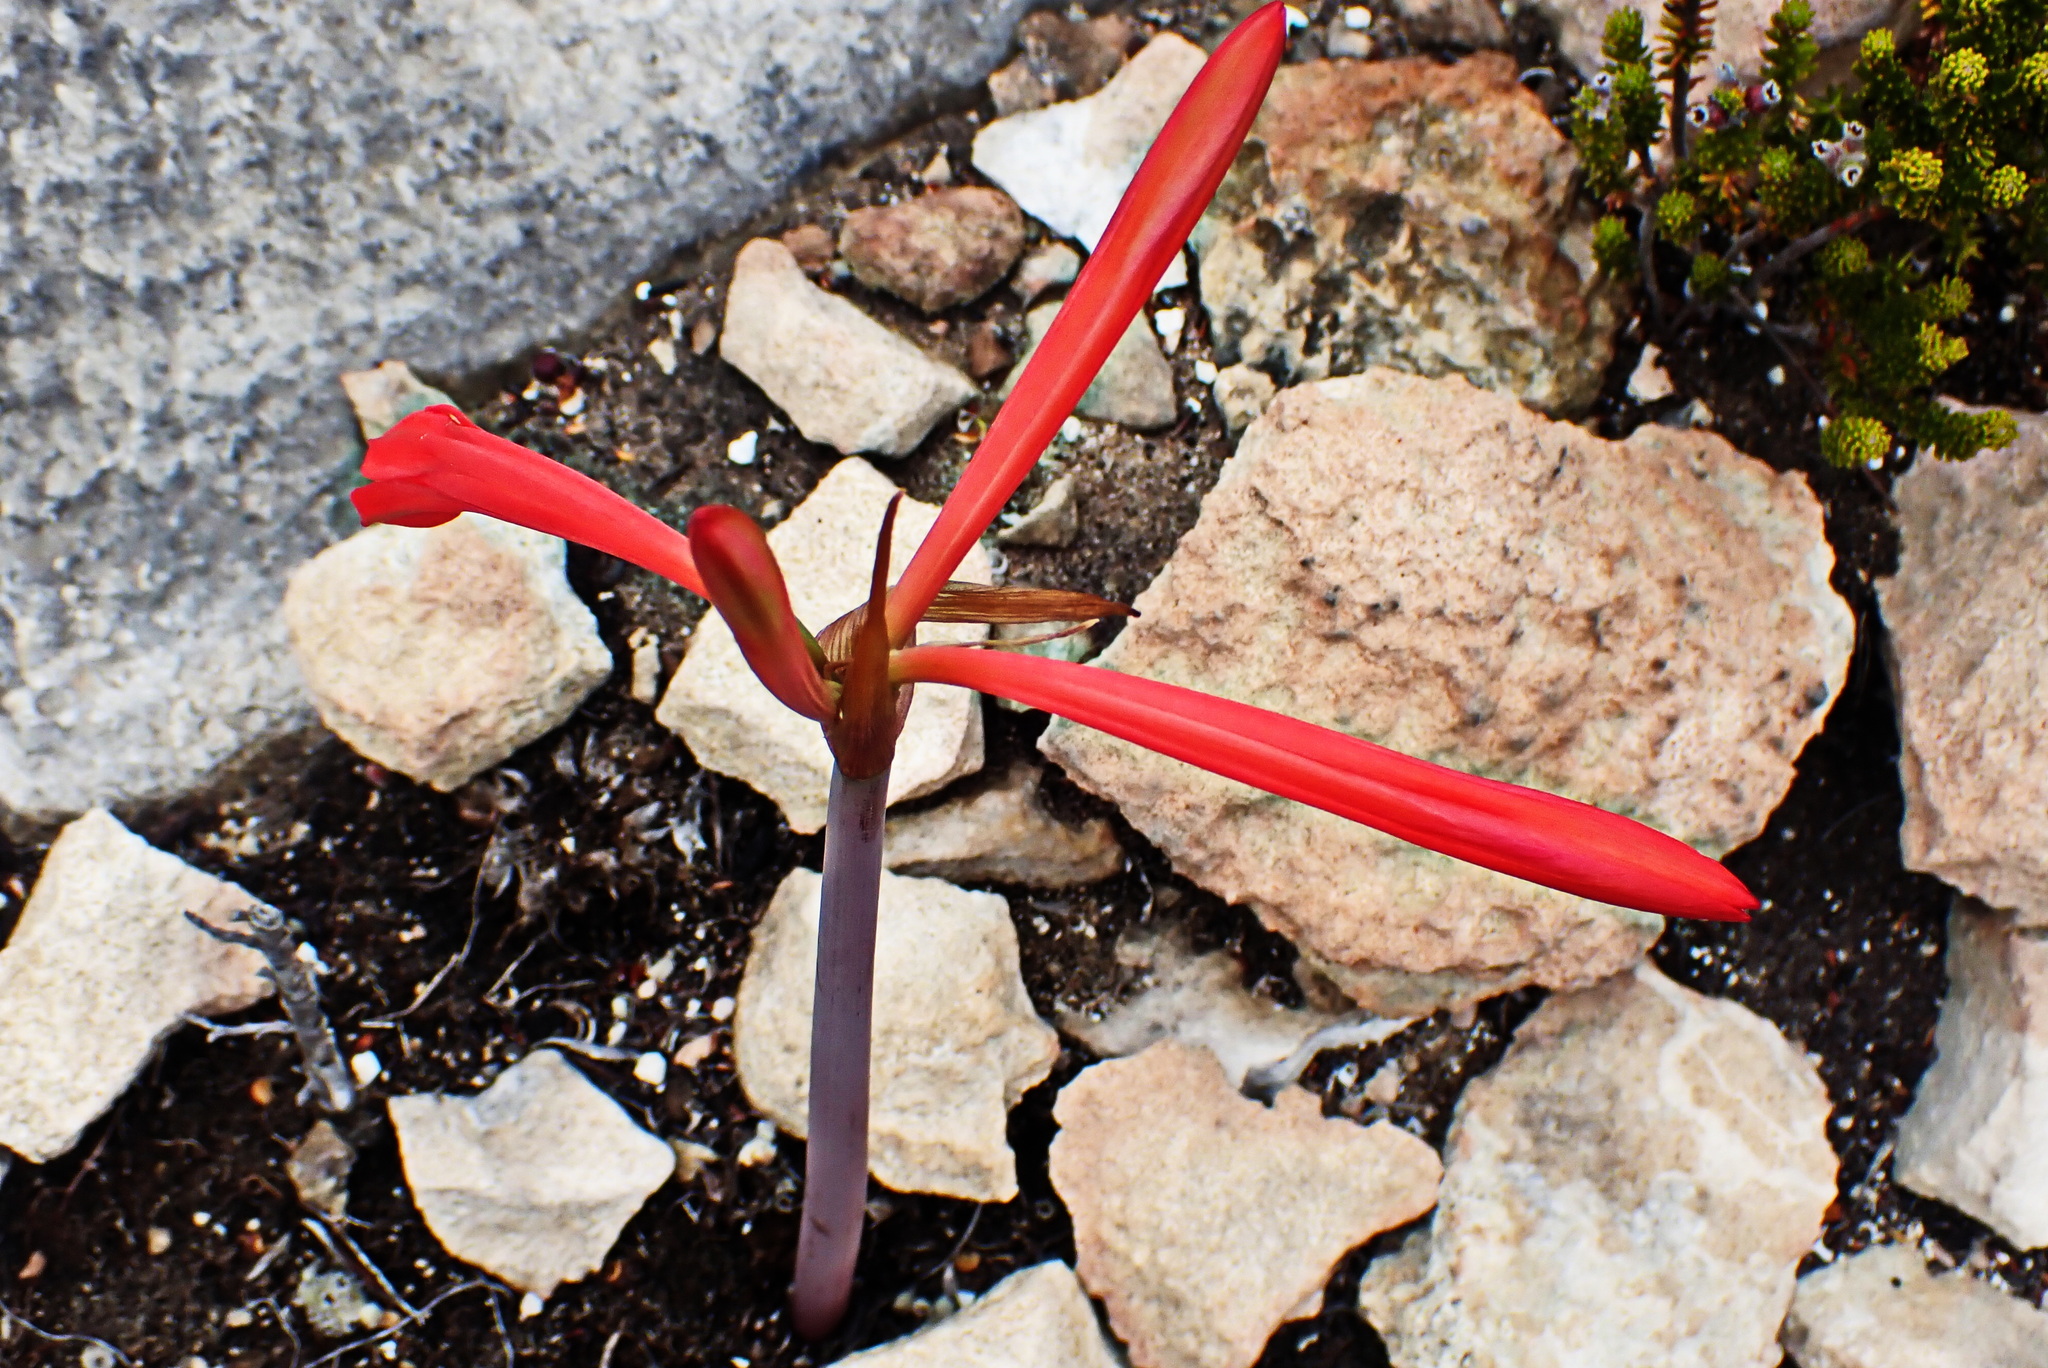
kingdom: Plantae
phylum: Tracheophyta
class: Liliopsida
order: Asparagales
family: Amaryllidaceae
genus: Cyrtanthus
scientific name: Cyrtanthus angustifolius
